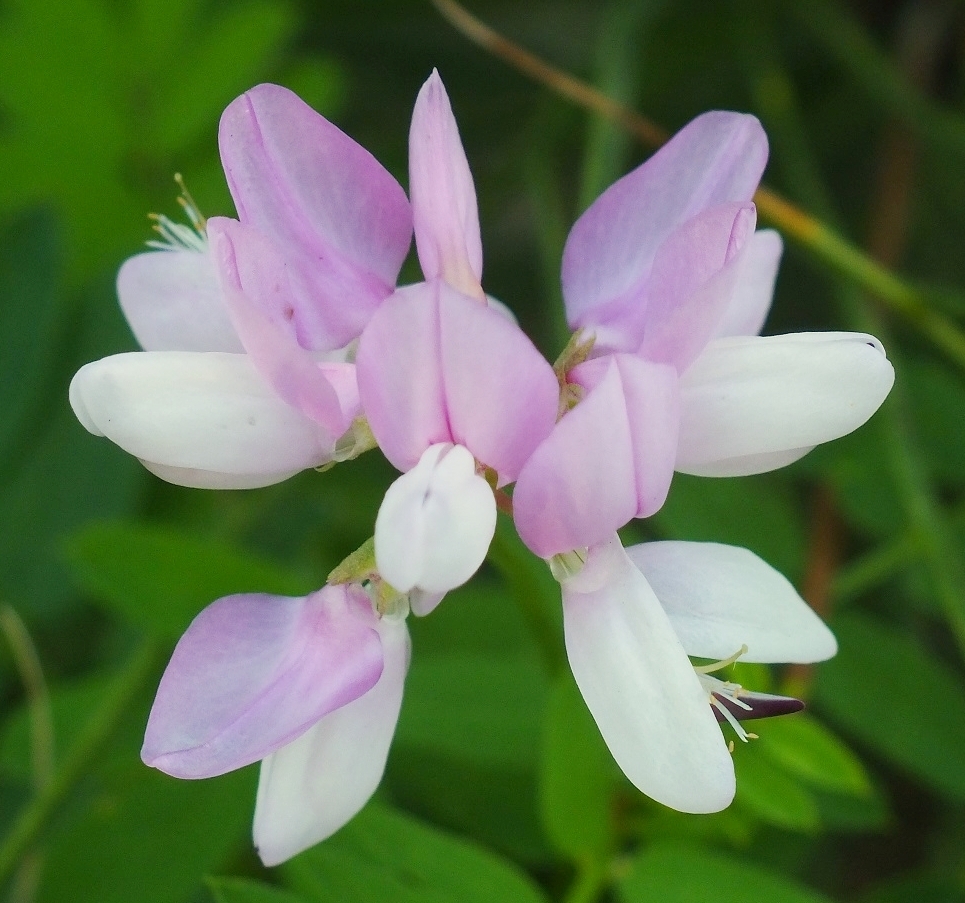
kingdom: Plantae
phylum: Tracheophyta
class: Magnoliopsida
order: Fabales
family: Fabaceae
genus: Coronilla
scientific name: Coronilla varia
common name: Crownvetch
